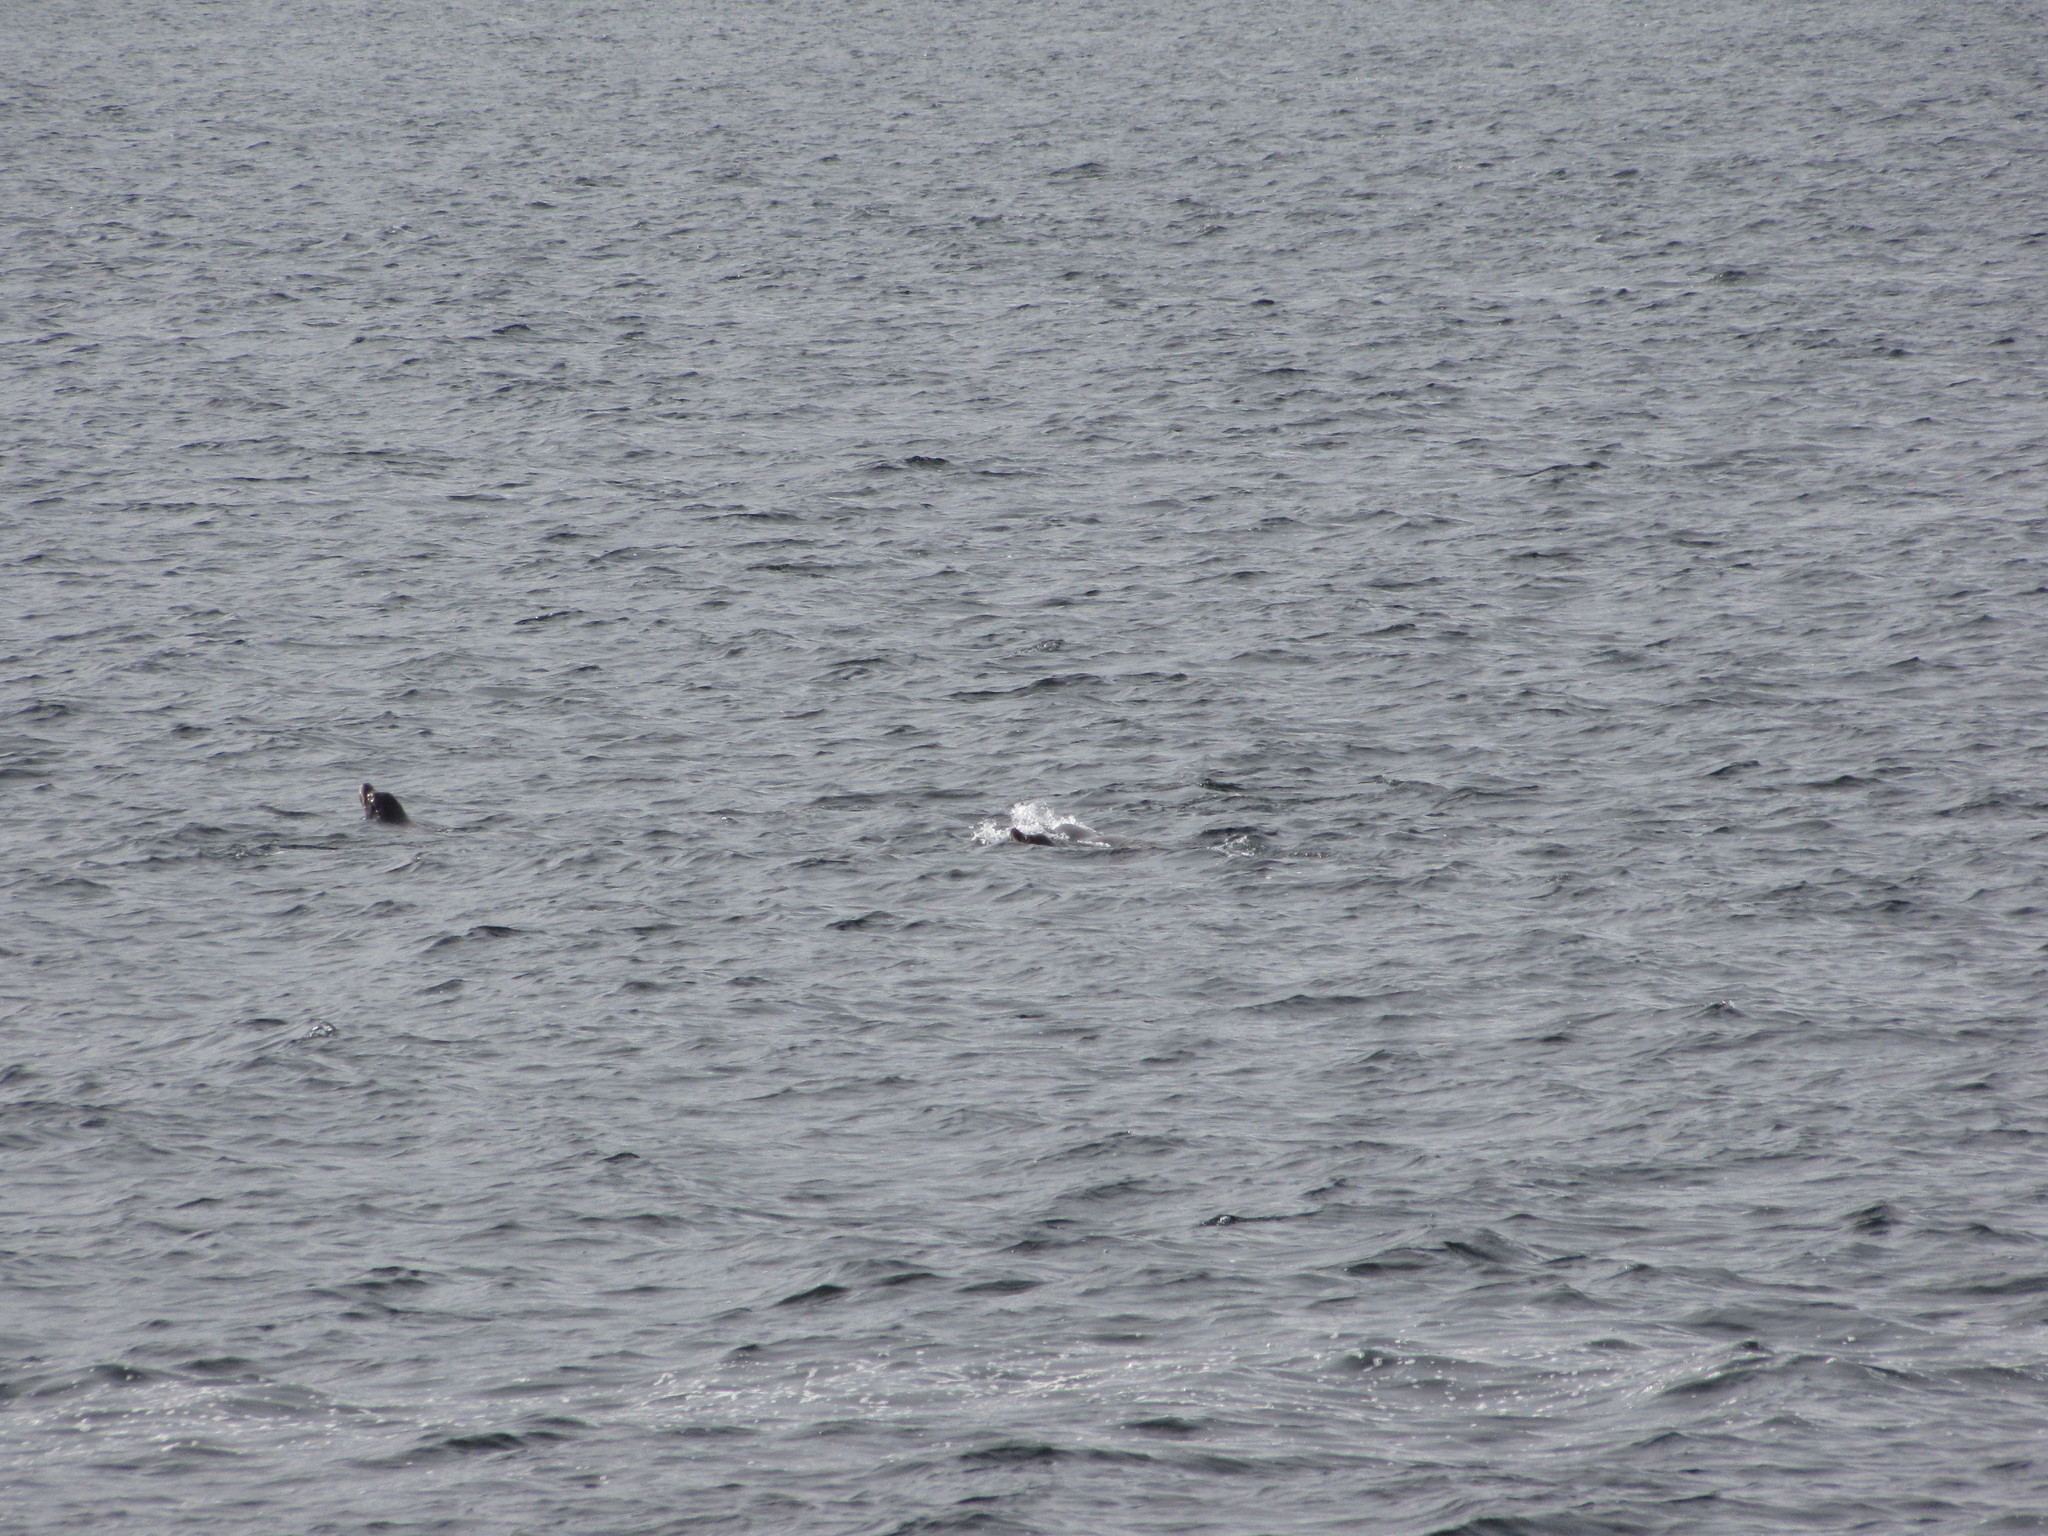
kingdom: Animalia
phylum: Chordata
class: Mammalia
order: Carnivora
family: Otariidae
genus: Zalophus
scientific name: Zalophus californianus
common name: California sea lion
